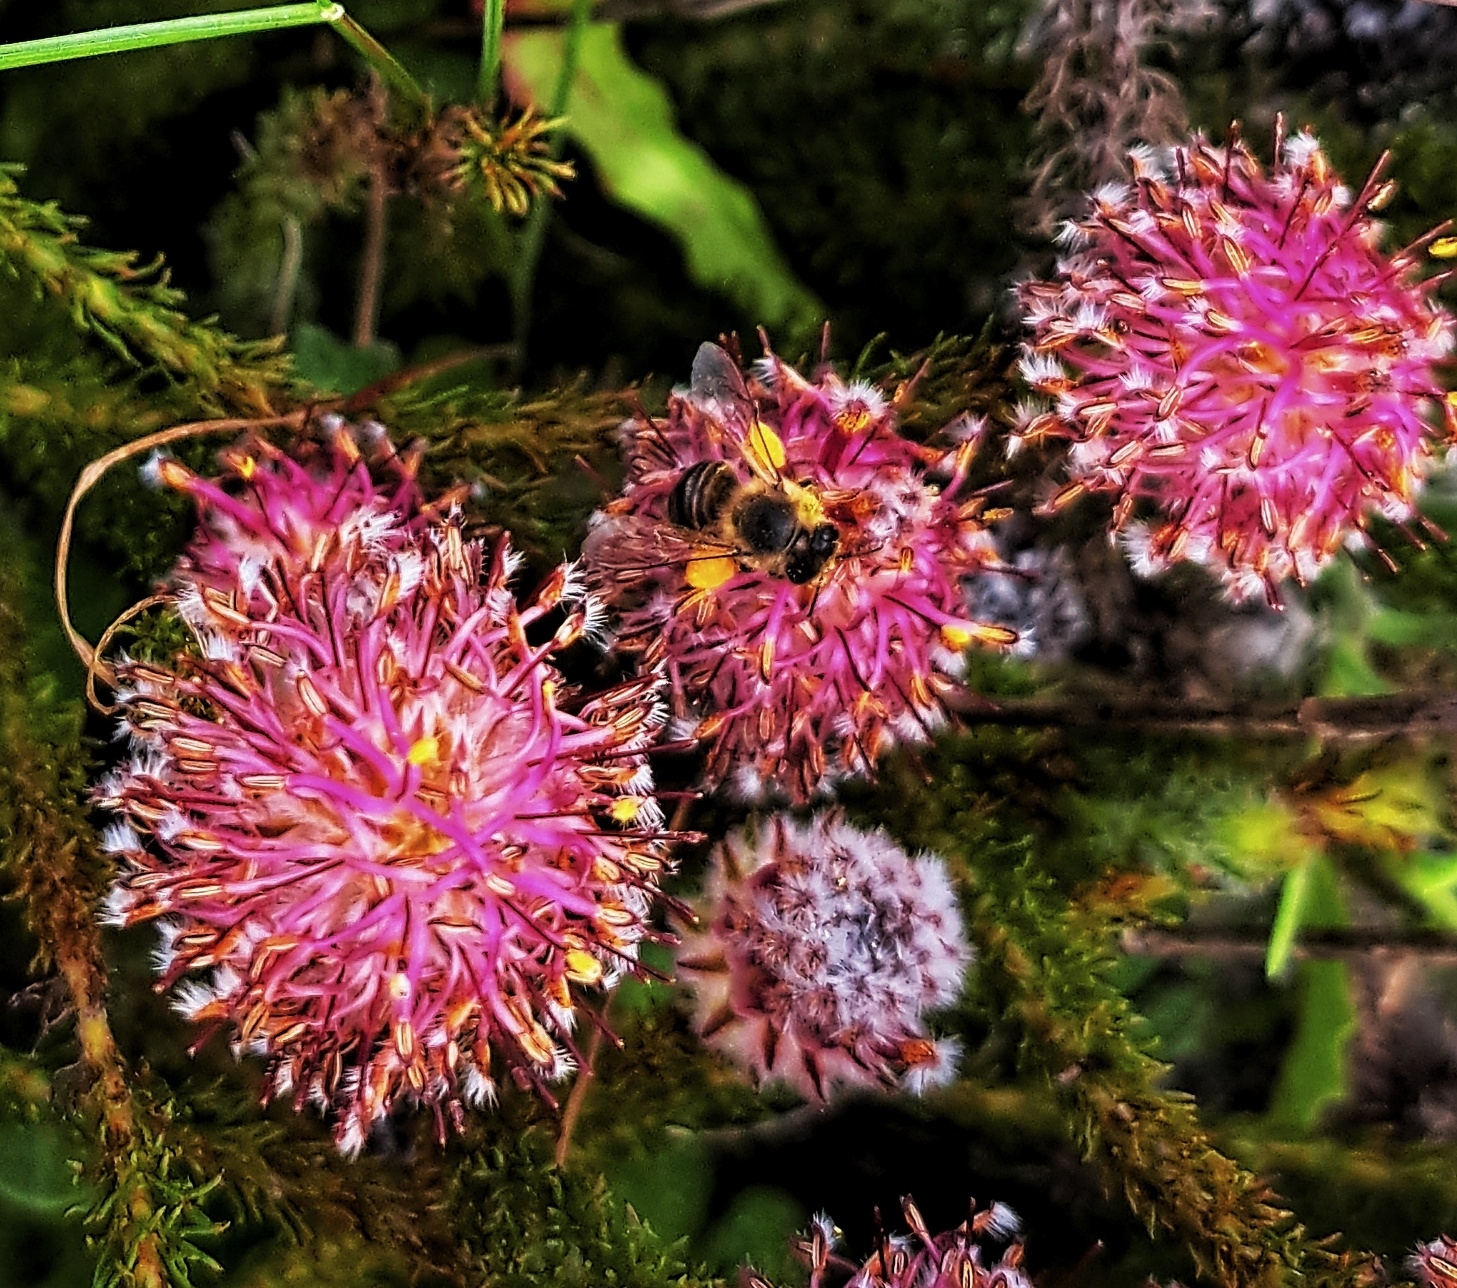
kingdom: Plantae
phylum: Tracheophyta
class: Magnoliopsida
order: Proteales
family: Proteaceae
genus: Serruria
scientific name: Serruria trilopha
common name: Trident spiderhead
